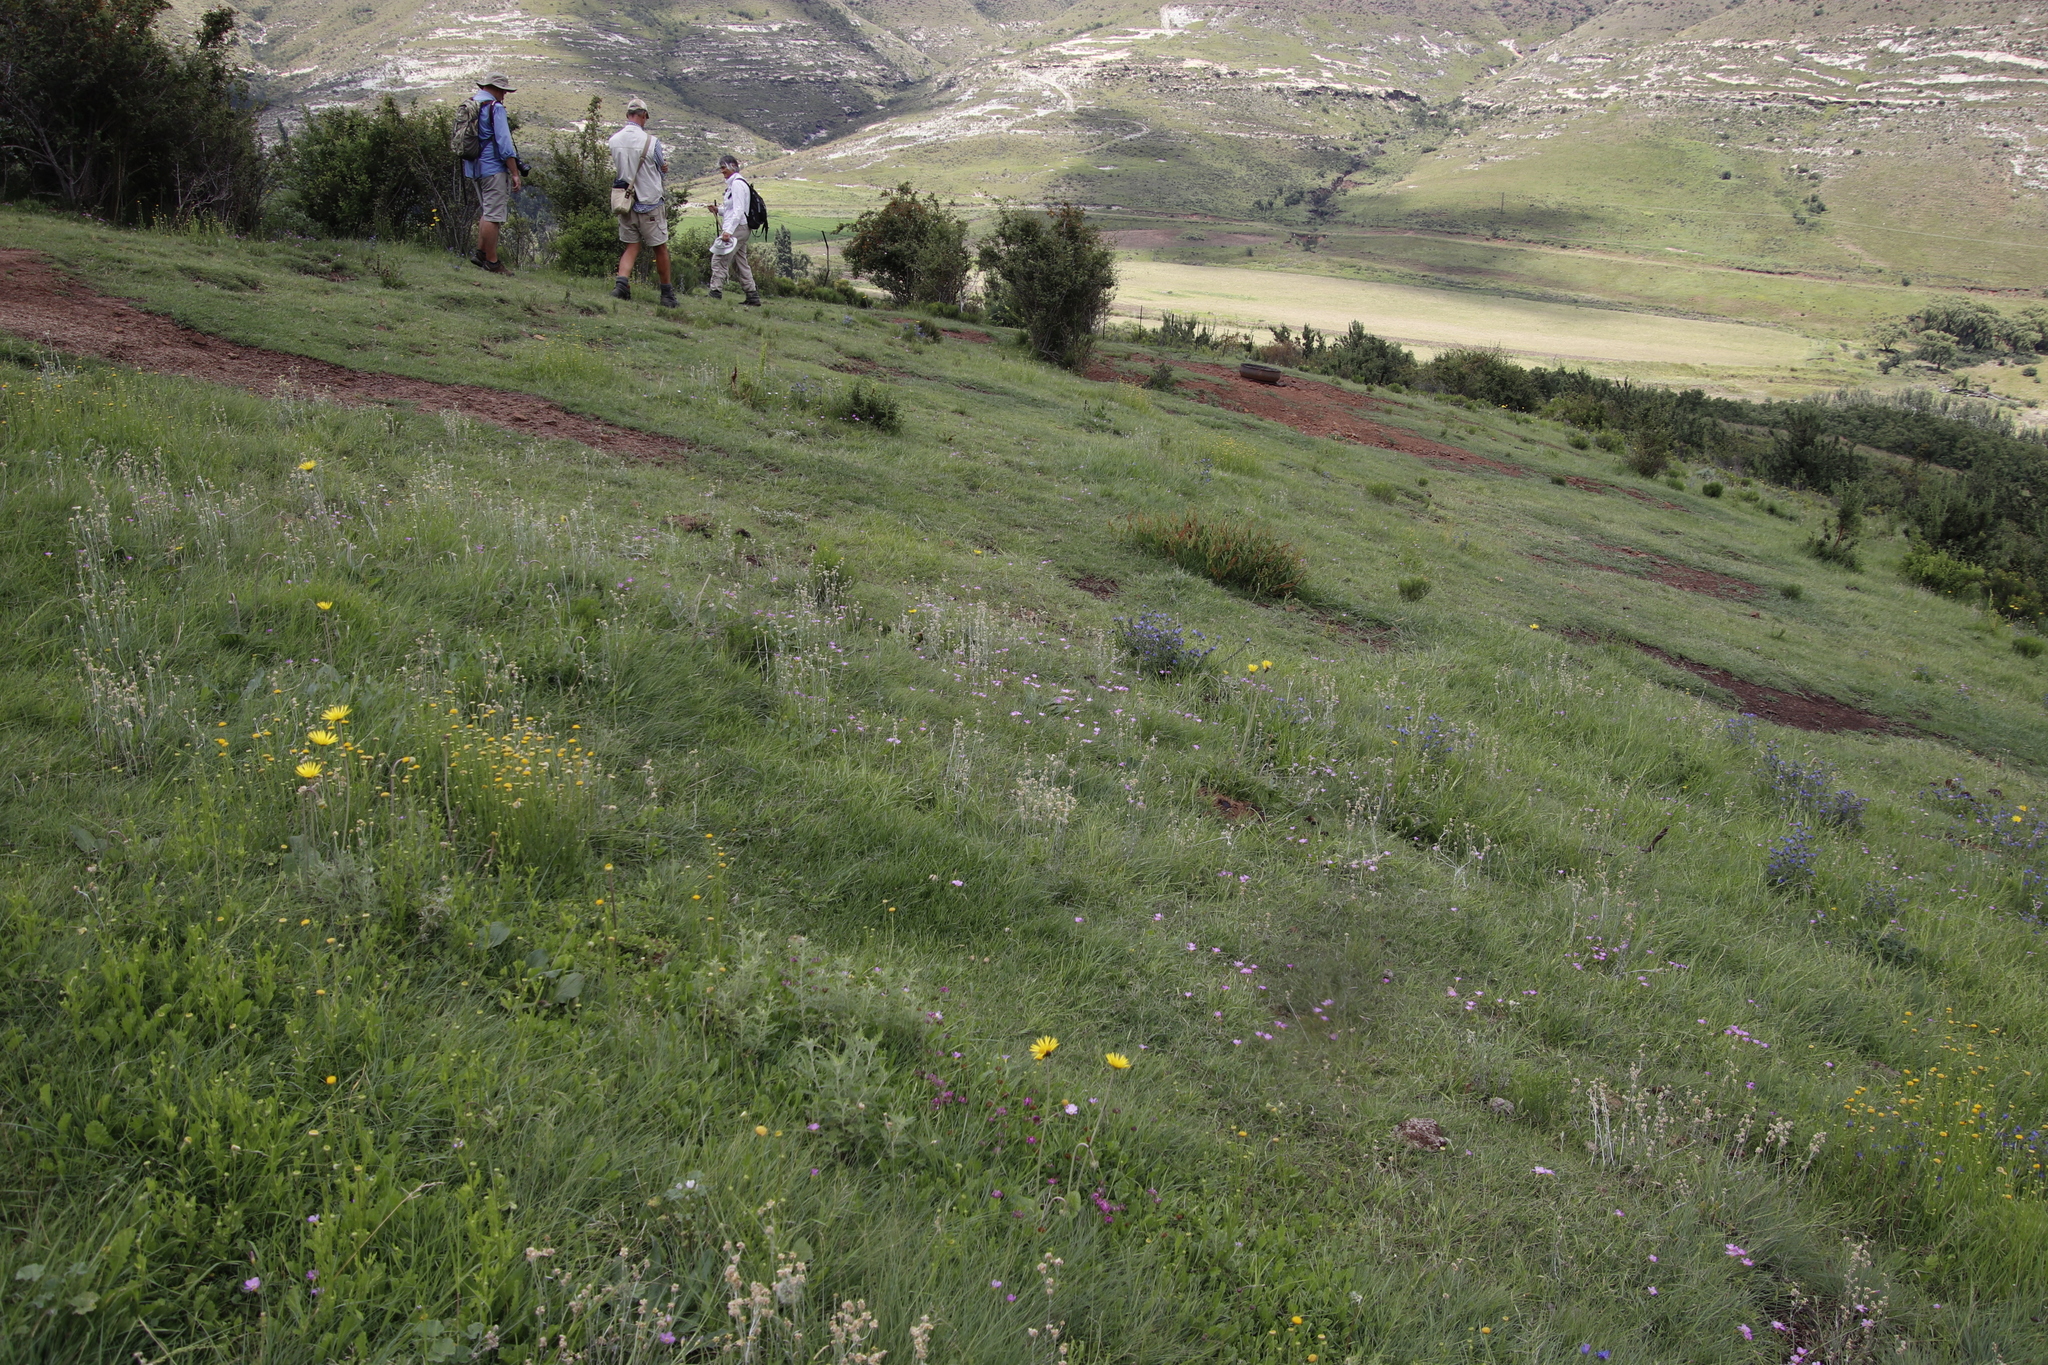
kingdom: Plantae
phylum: Tracheophyta
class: Magnoliopsida
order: Oxalidales
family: Oxalidaceae
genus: Oxalis
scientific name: Oxalis obliquifolia
